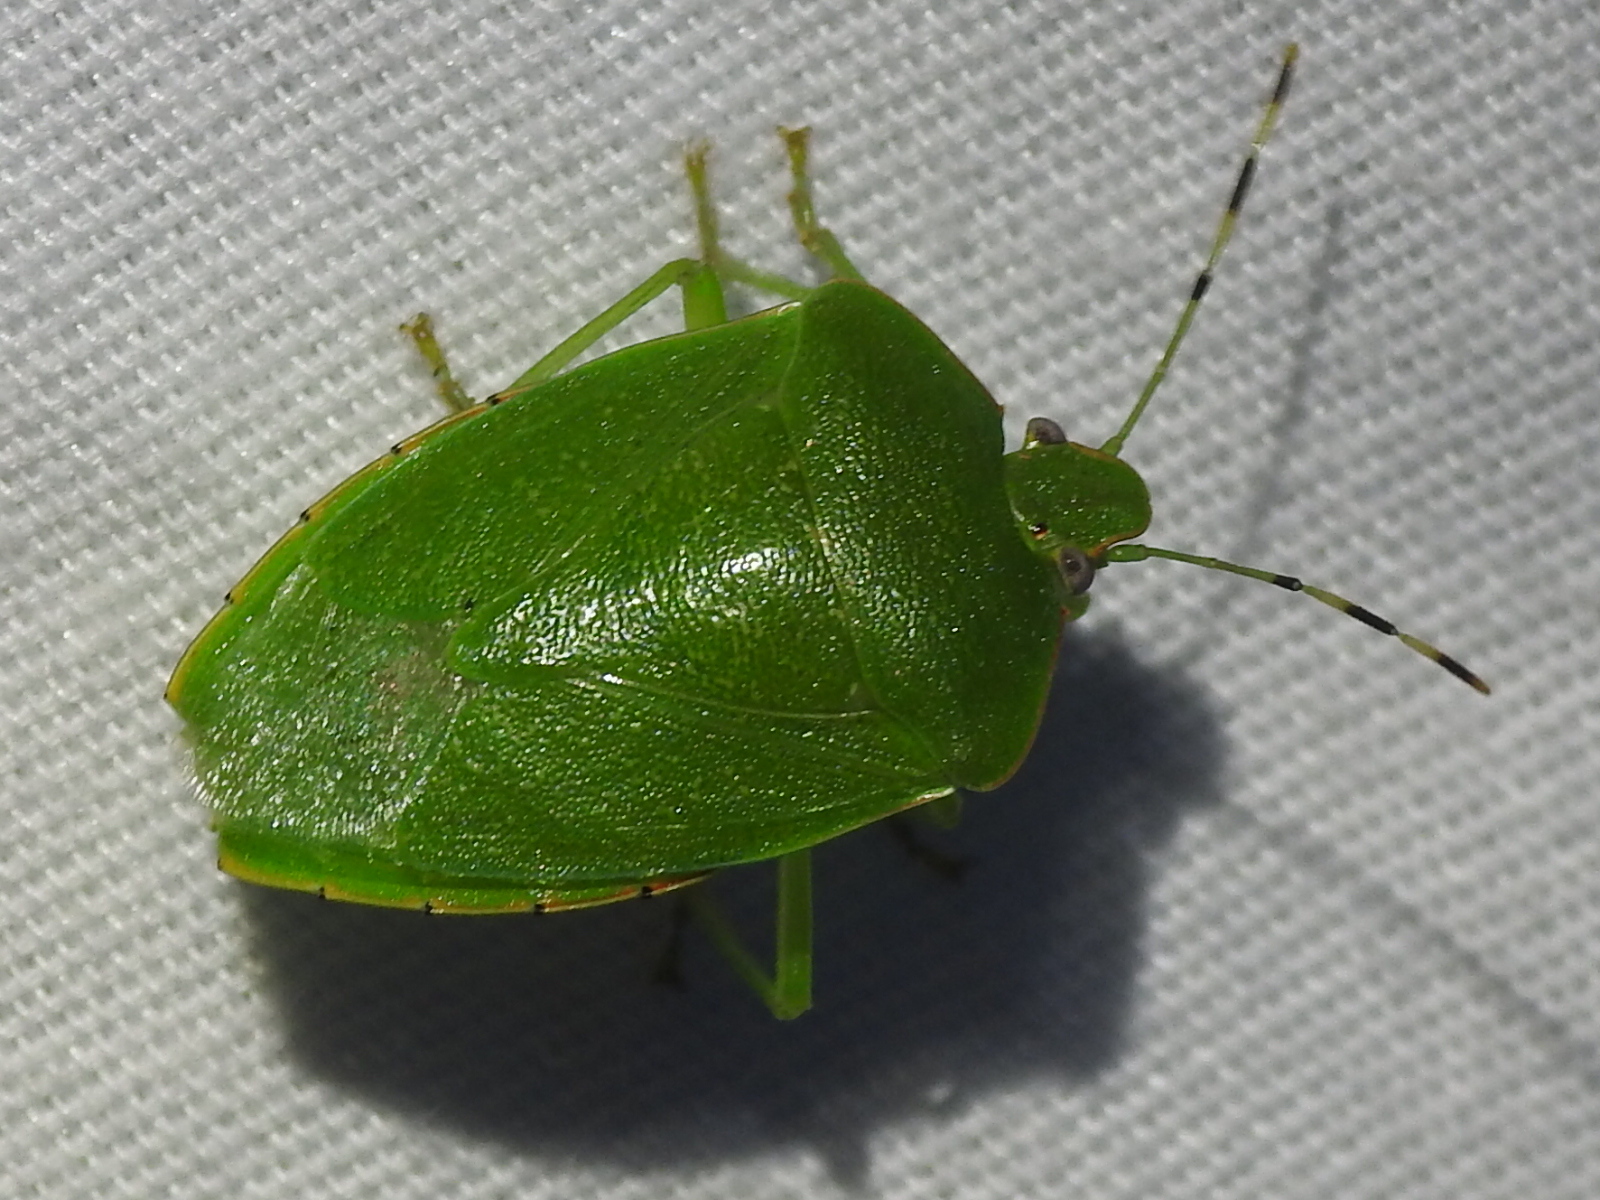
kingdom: Animalia
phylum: Arthropoda
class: Insecta
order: Hemiptera
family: Pentatomidae
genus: Chinavia
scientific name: Chinavia hilaris
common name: Green stink bug
